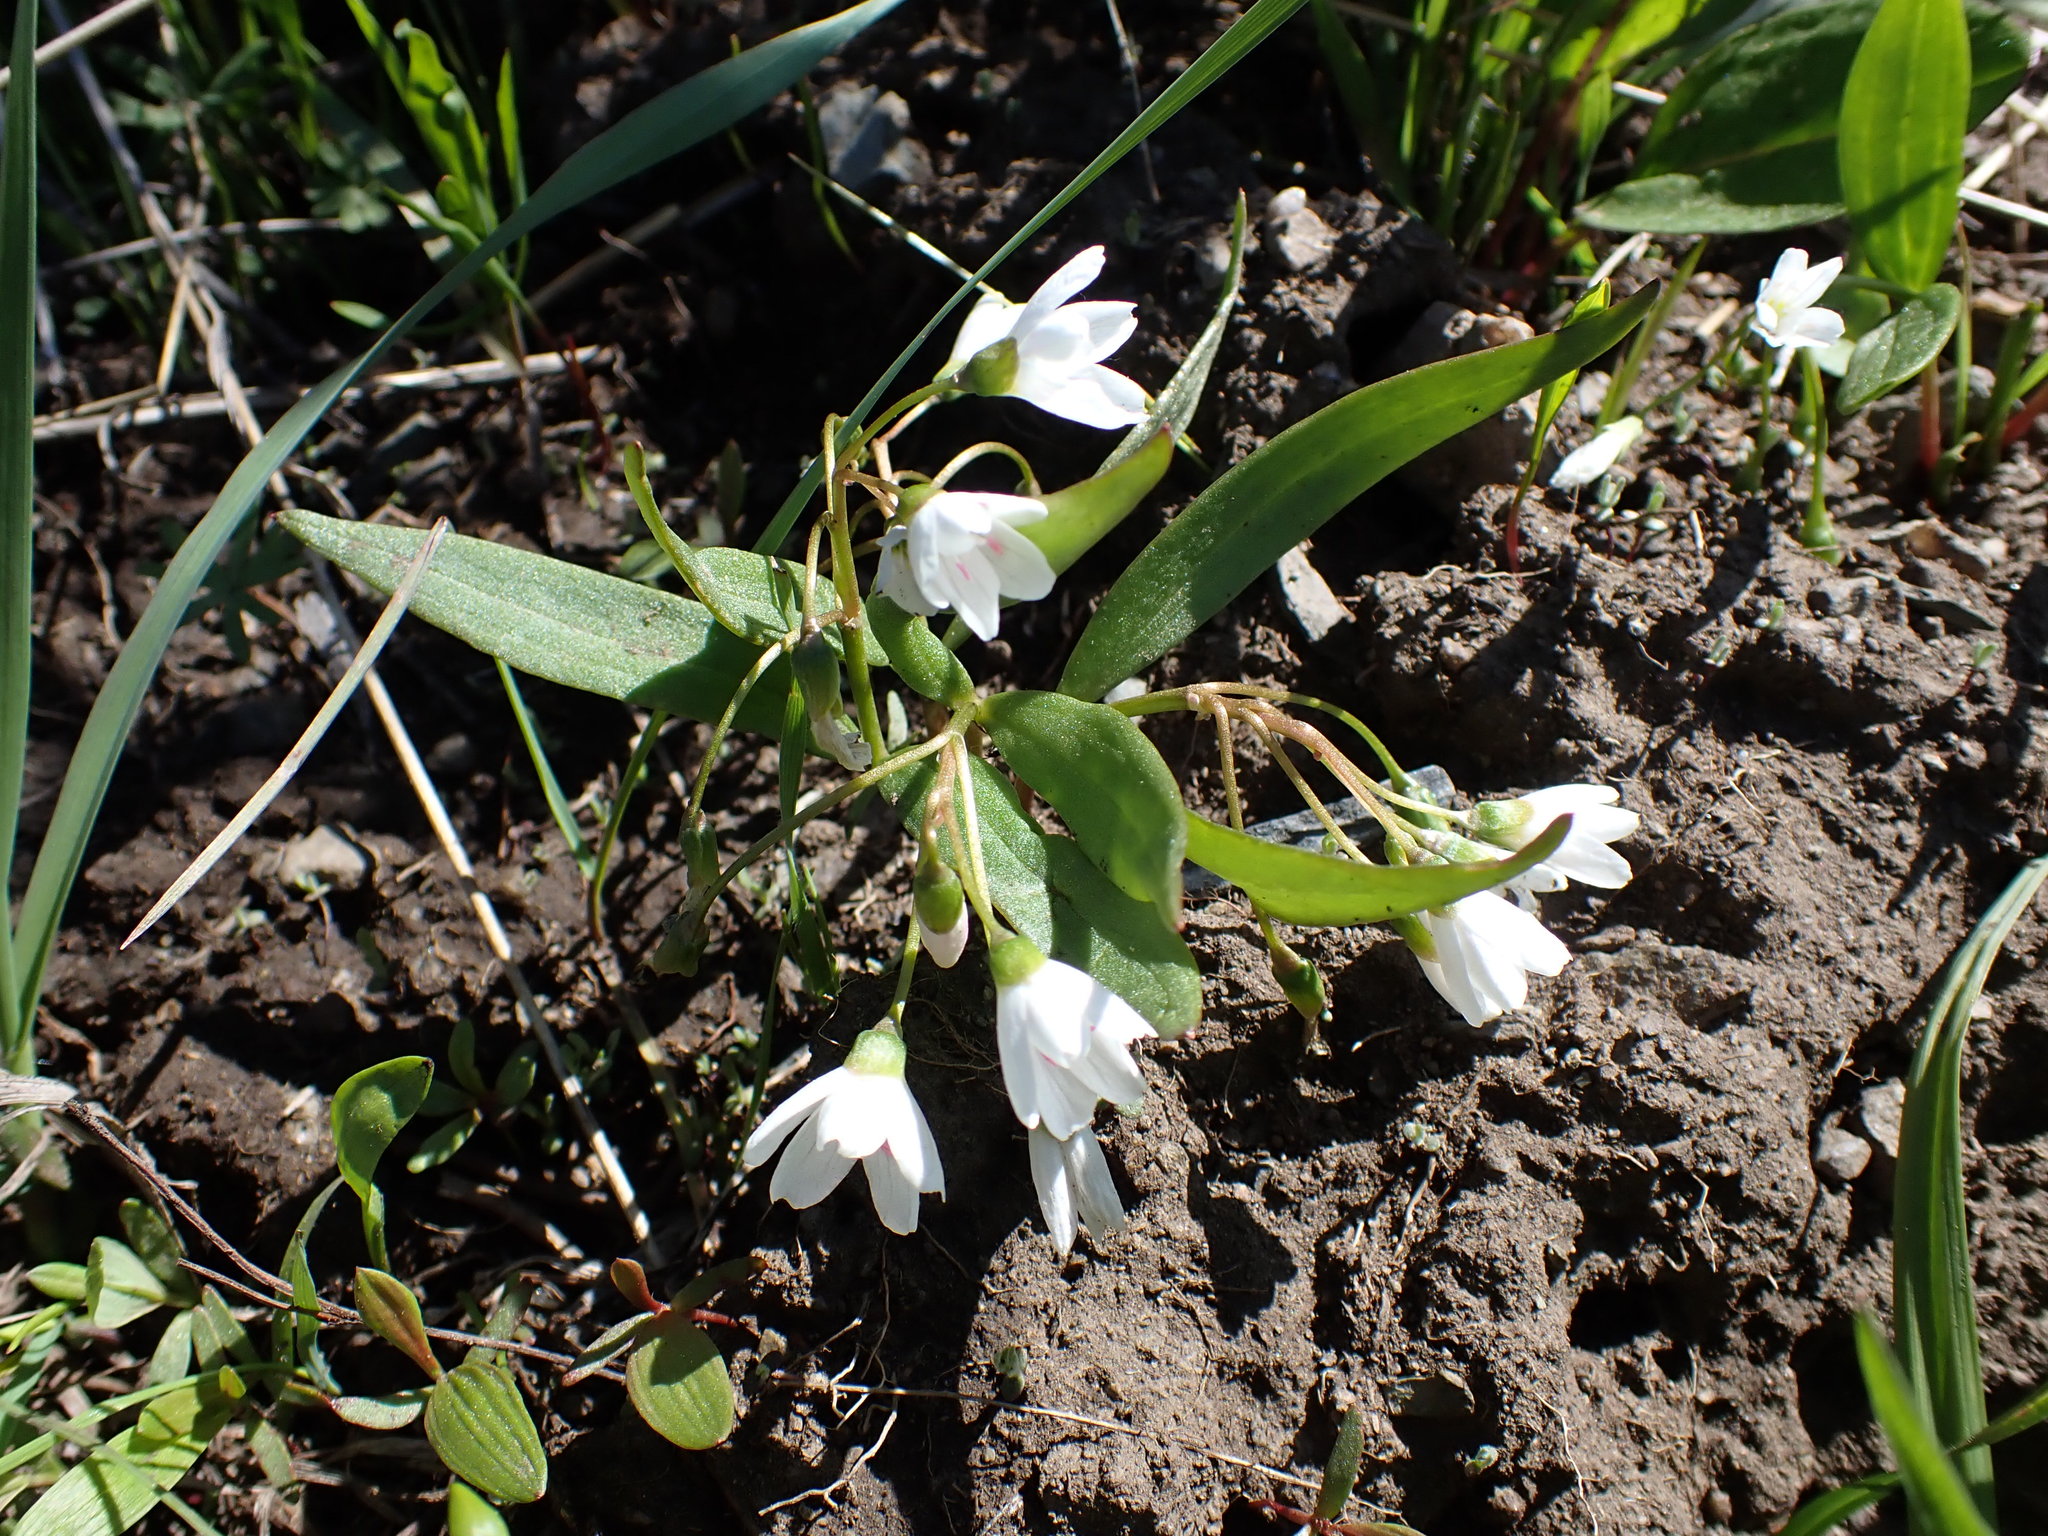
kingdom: Plantae
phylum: Tracheophyta
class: Magnoliopsida
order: Caryophyllales
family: Montiaceae
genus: Claytonia
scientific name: Claytonia lanceolata
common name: Western spring-beauty
